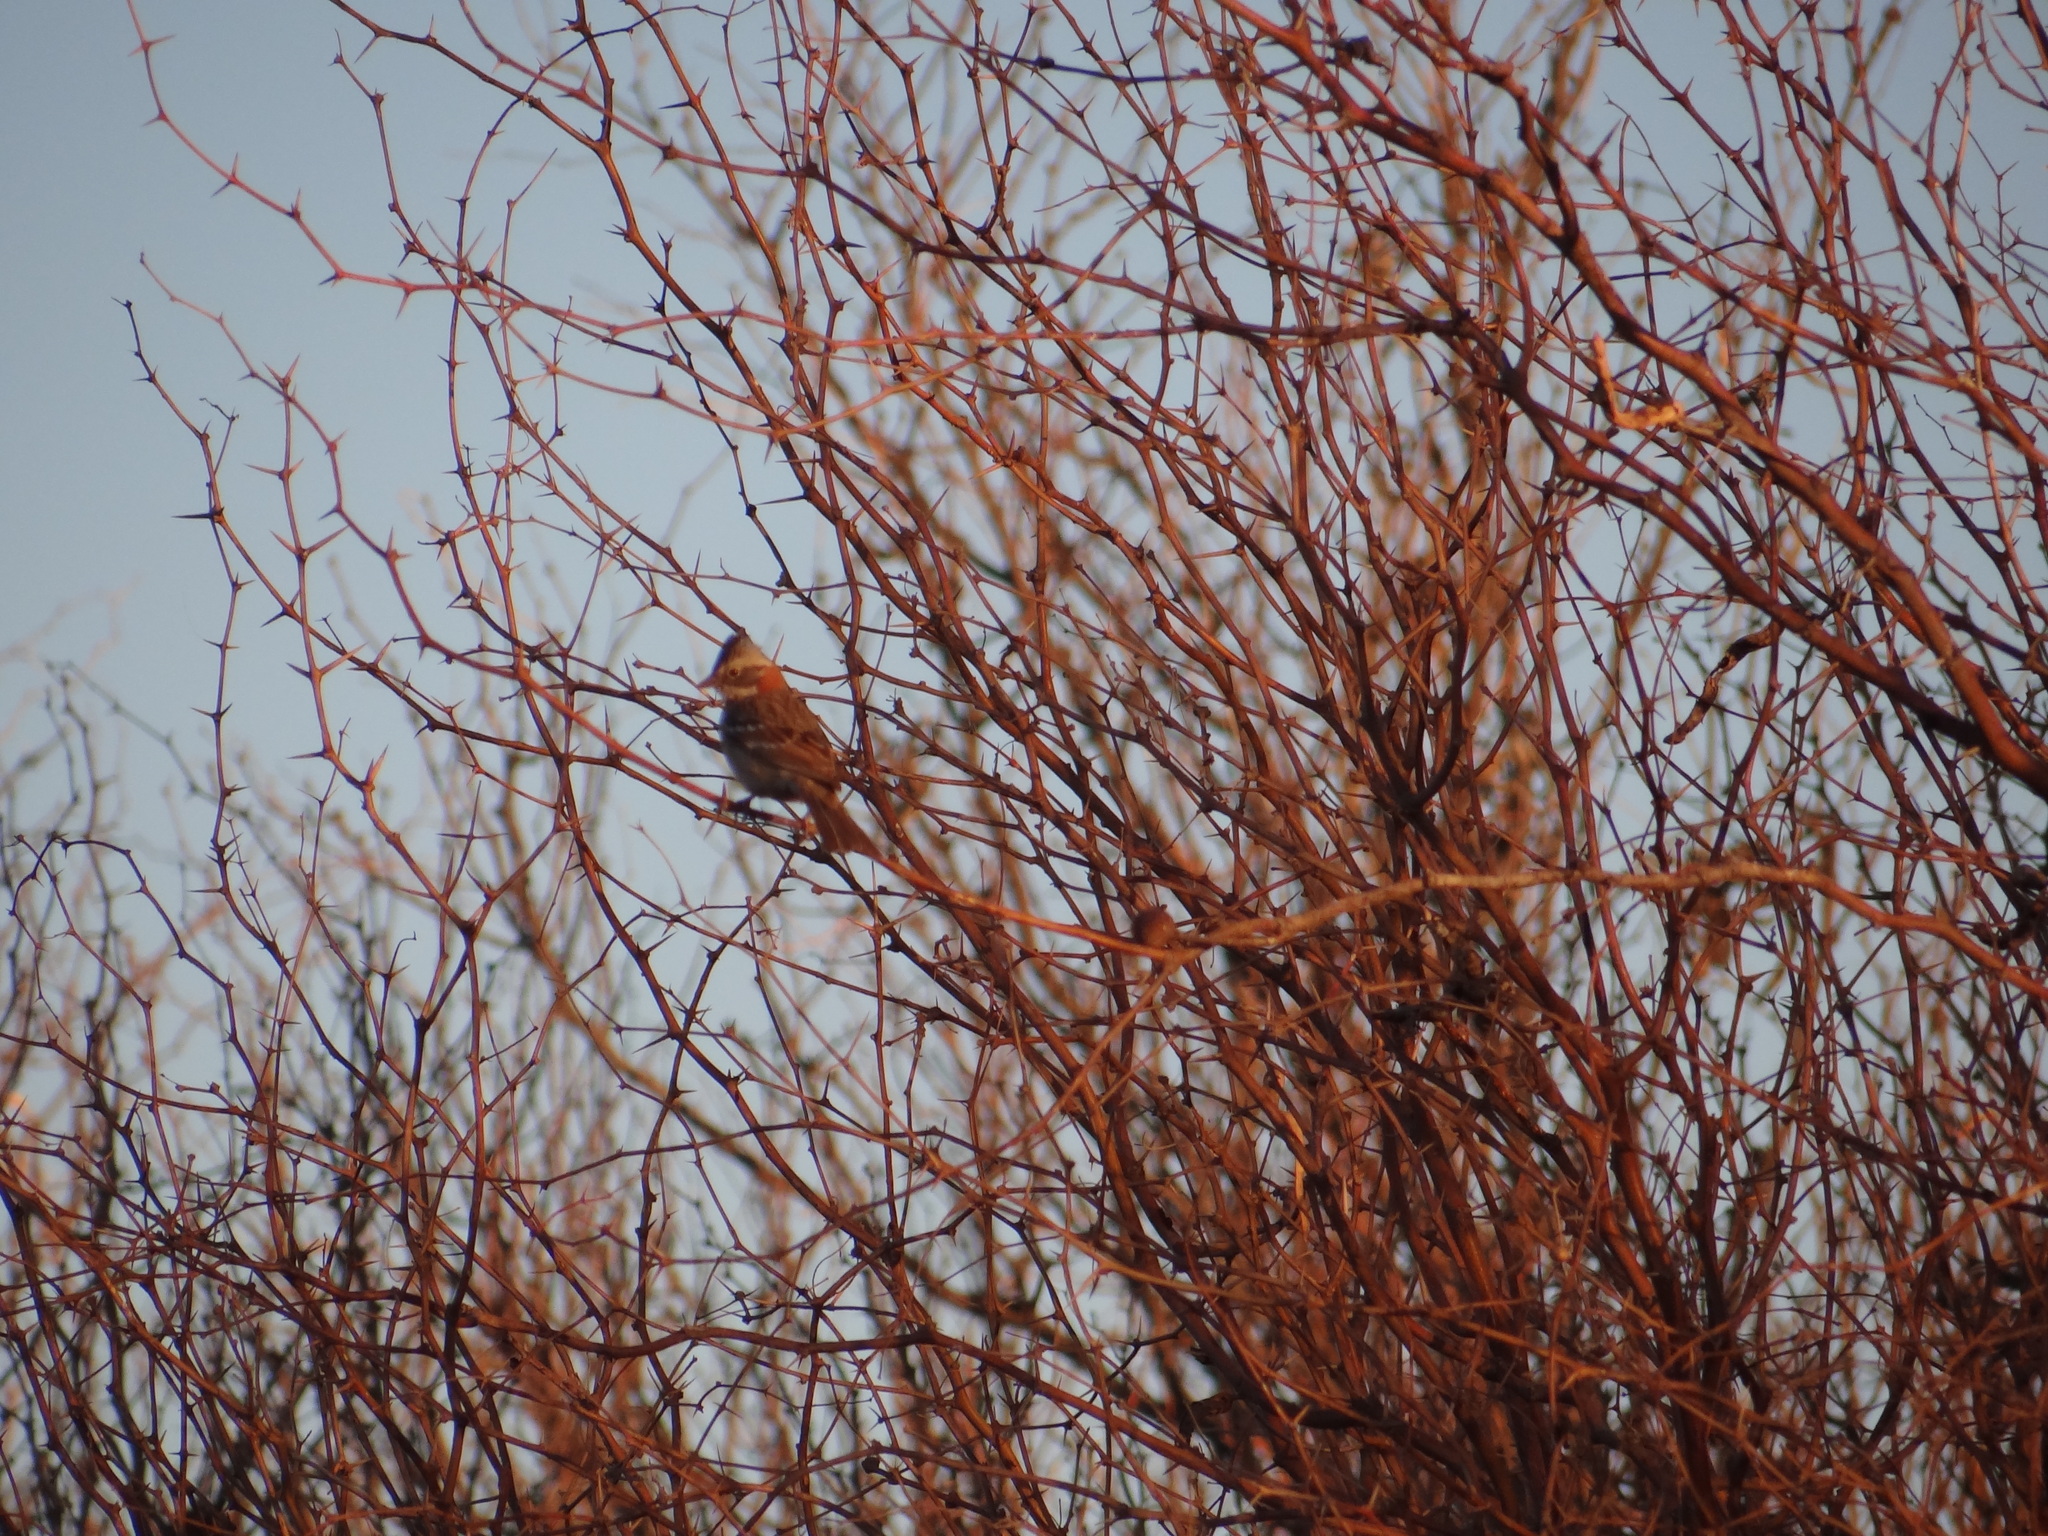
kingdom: Animalia
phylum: Chordata
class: Aves
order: Passeriformes
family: Passerellidae
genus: Zonotrichia
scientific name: Zonotrichia capensis
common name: Rufous-collared sparrow
